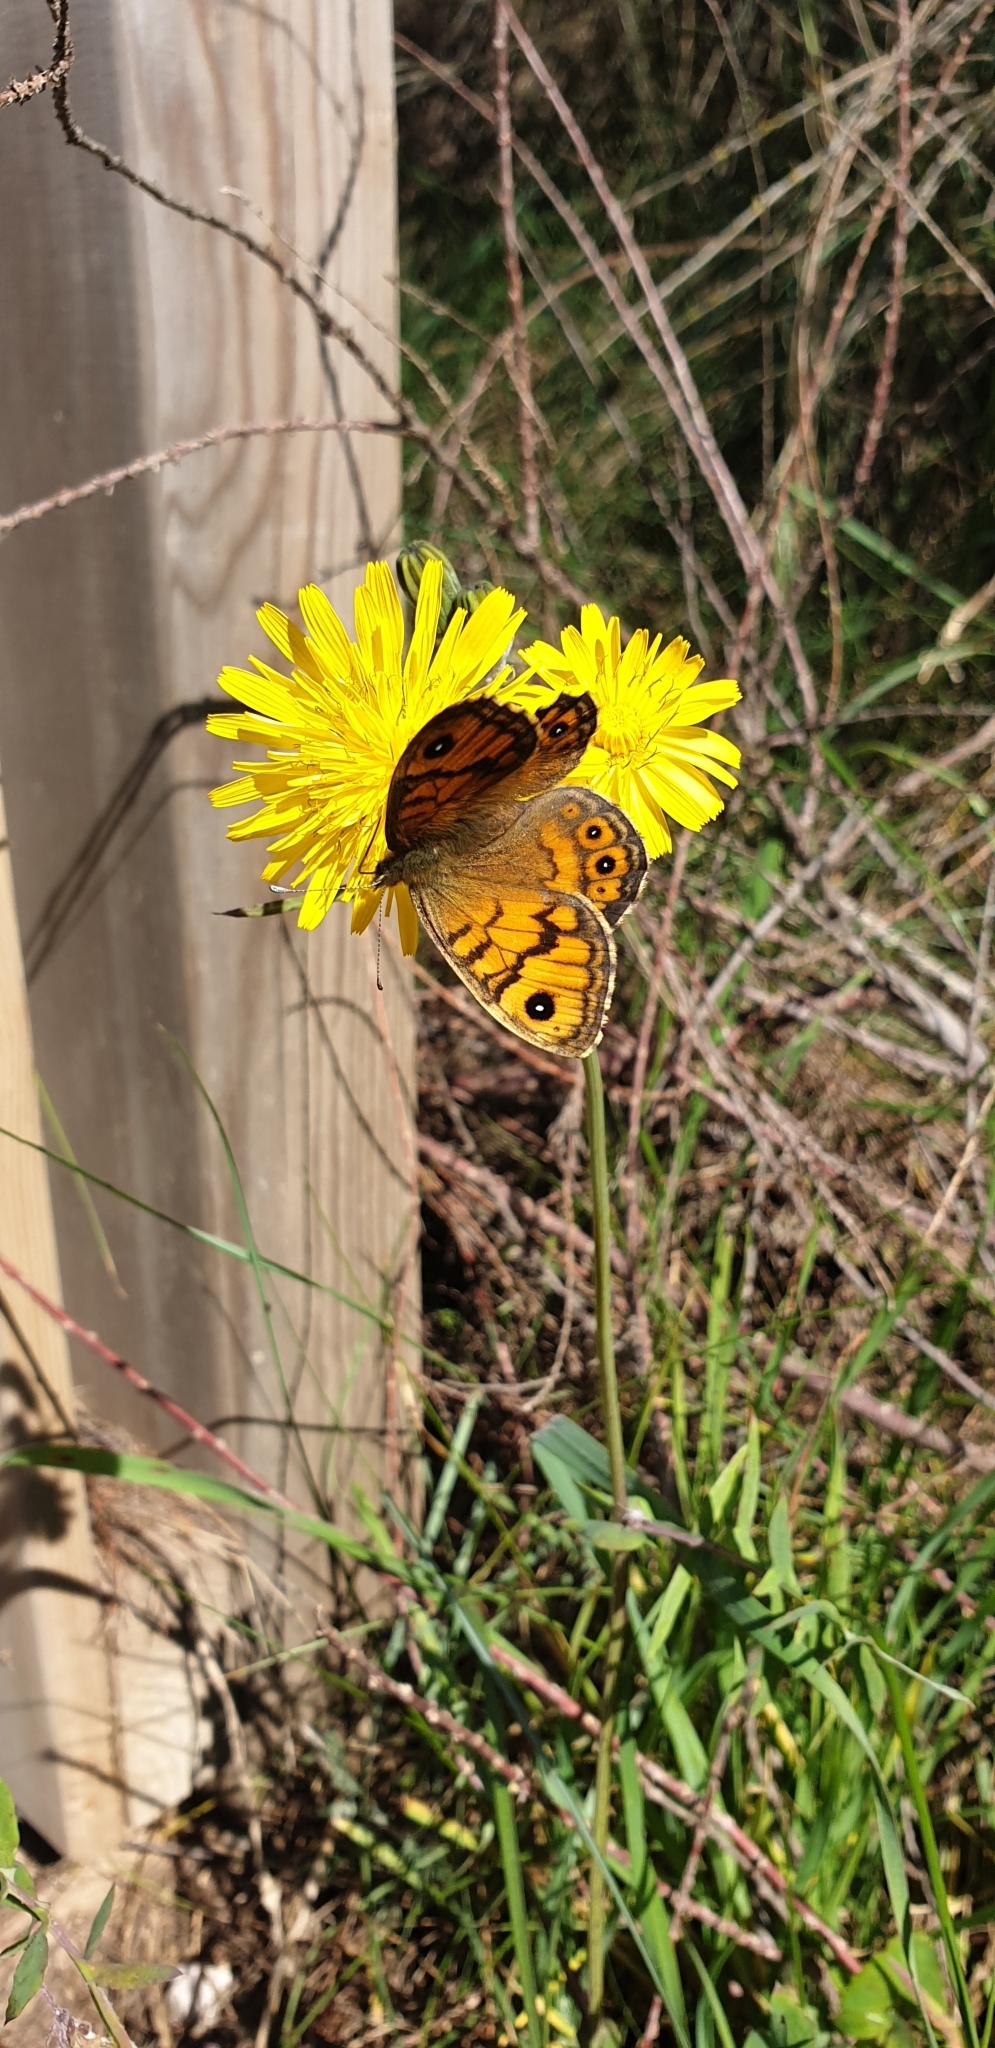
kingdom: Animalia
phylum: Arthropoda
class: Insecta
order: Lepidoptera
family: Nymphalidae
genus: Pararge
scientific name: Pararge Lasiommata megera
